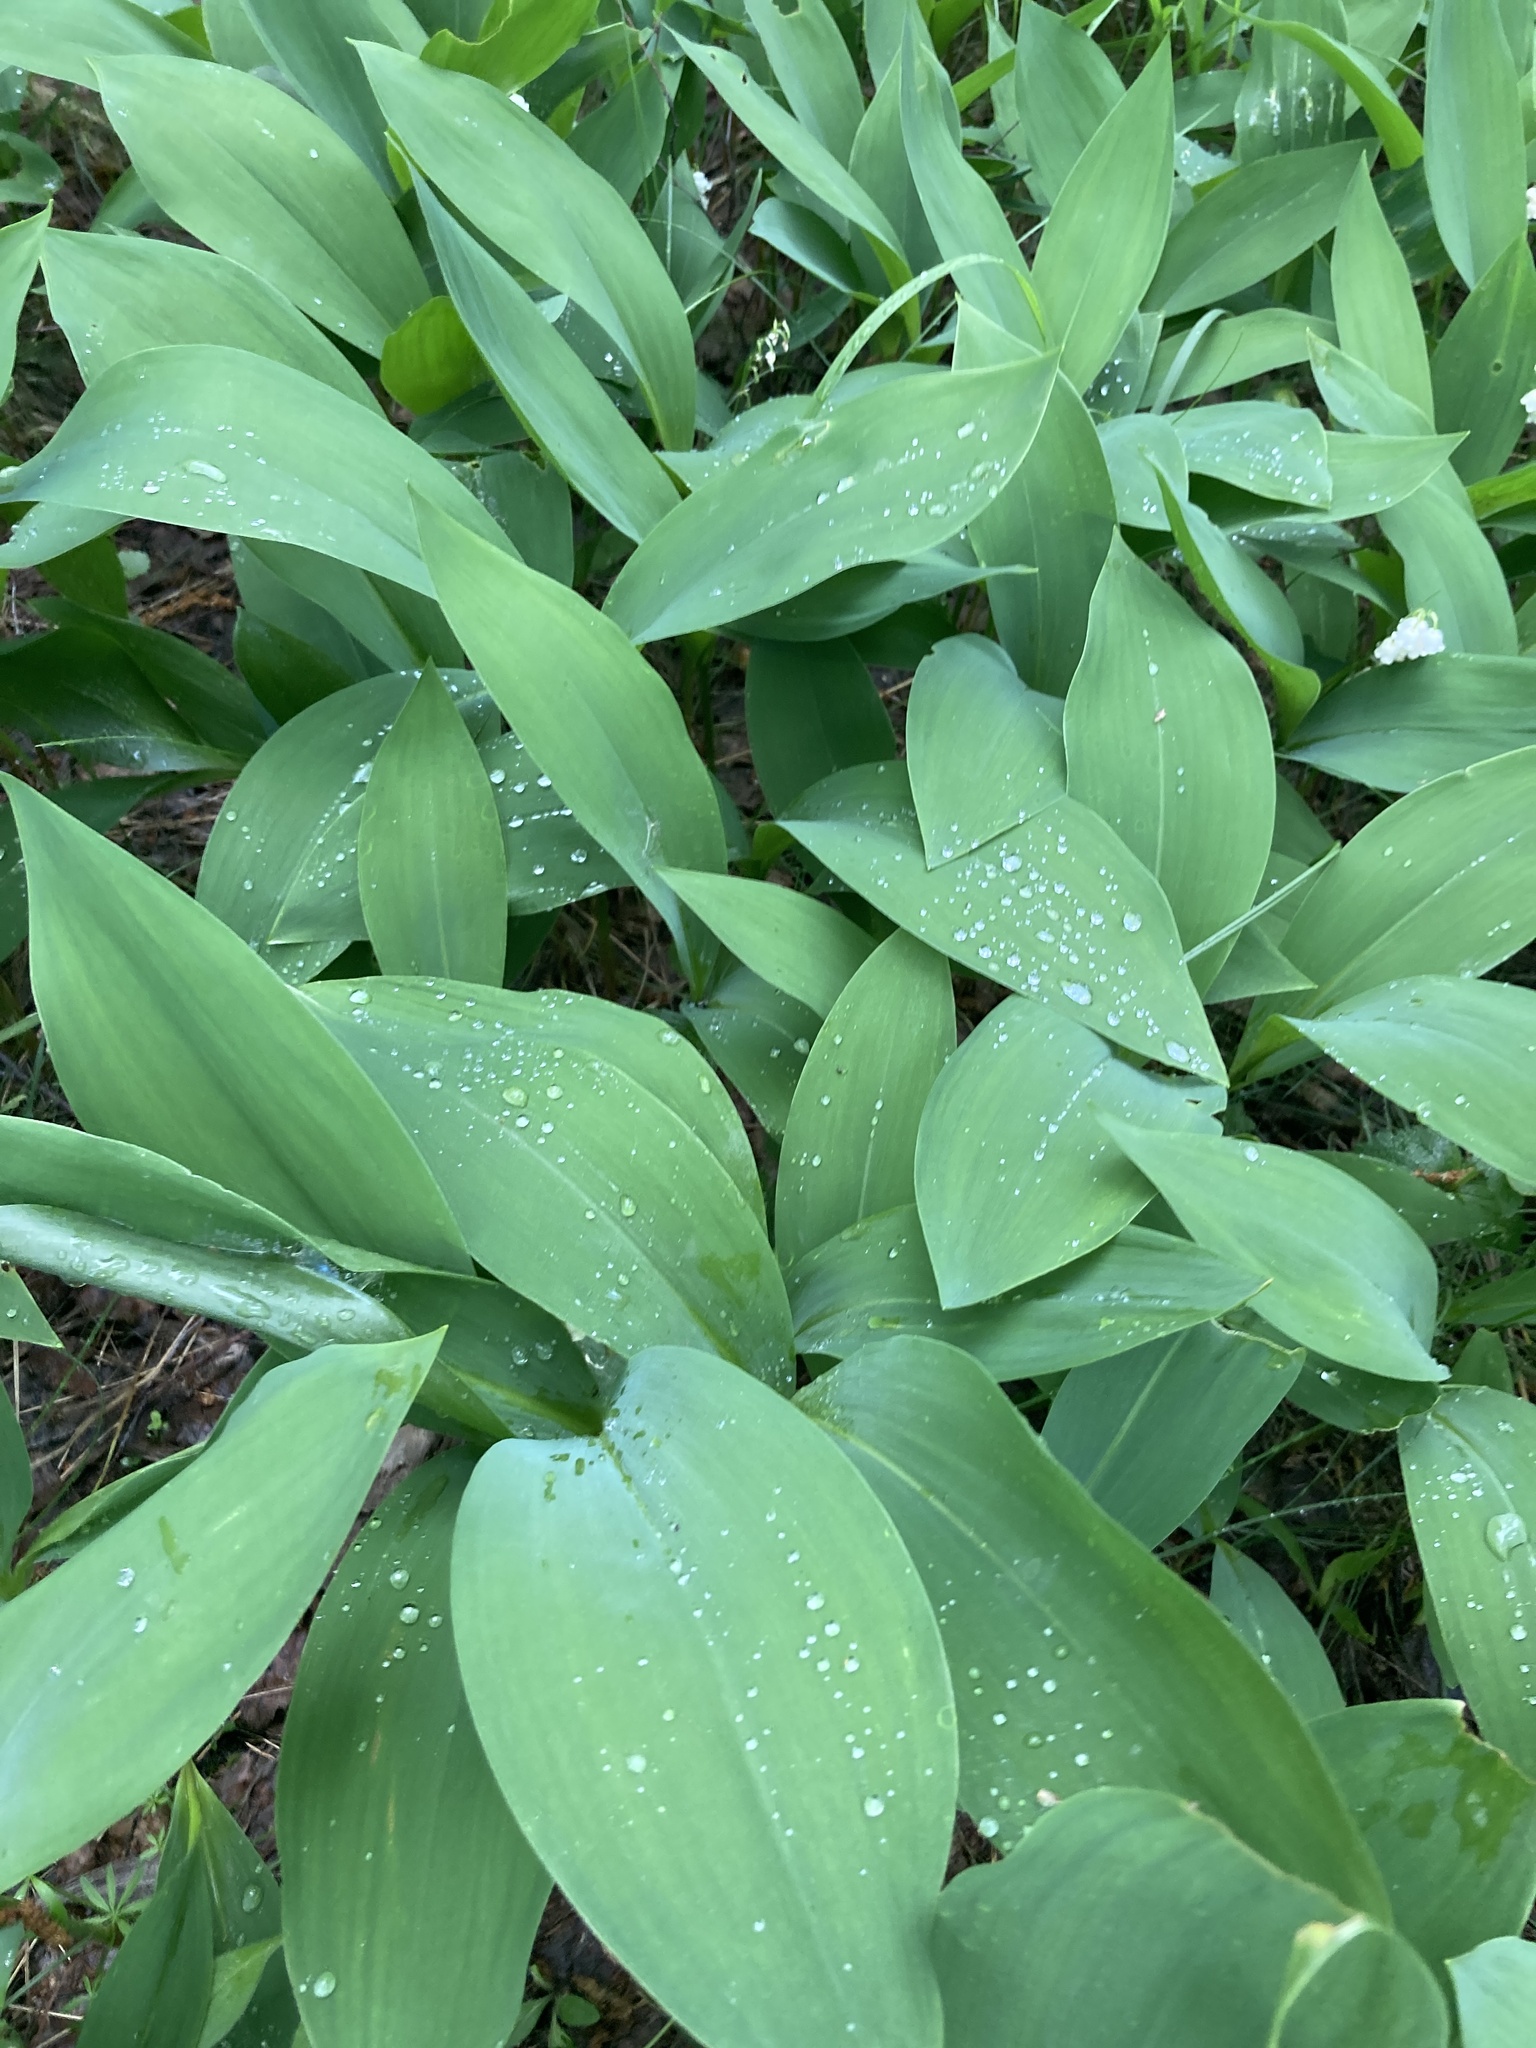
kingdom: Plantae
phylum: Tracheophyta
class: Liliopsida
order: Asparagales
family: Asparagaceae
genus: Convallaria
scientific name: Convallaria majalis
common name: Lily-of-the-valley
